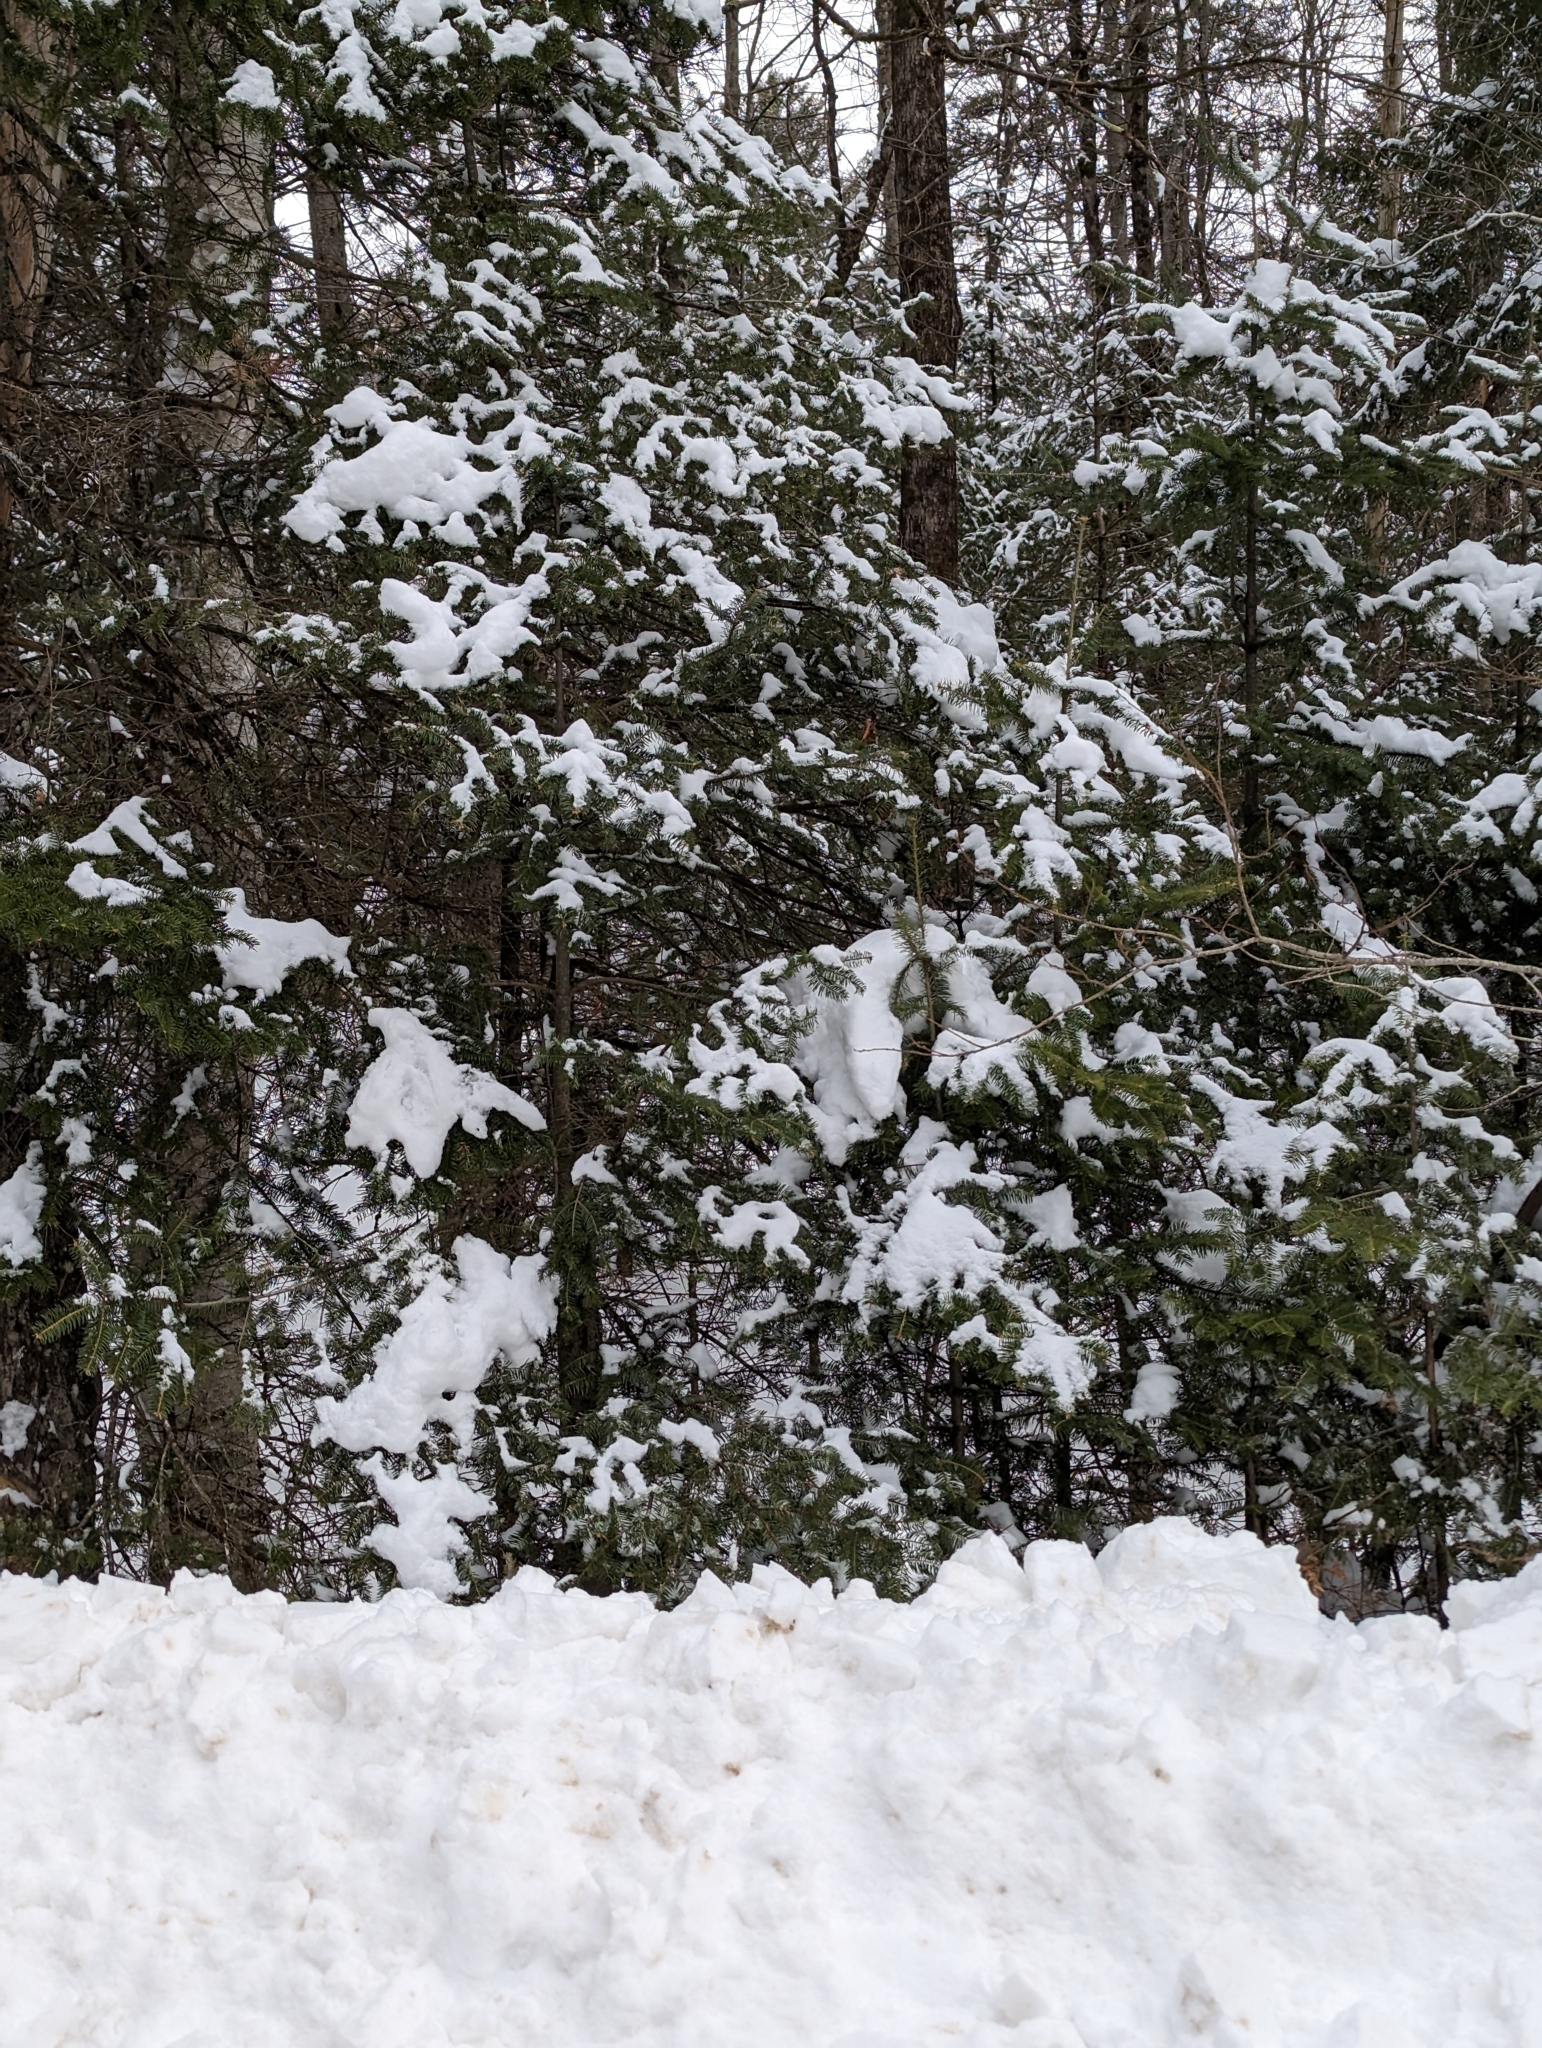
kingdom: Plantae
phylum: Tracheophyta
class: Pinopsida
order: Pinales
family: Pinaceae
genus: Abies
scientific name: Abies balsamea
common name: Balsam fir
